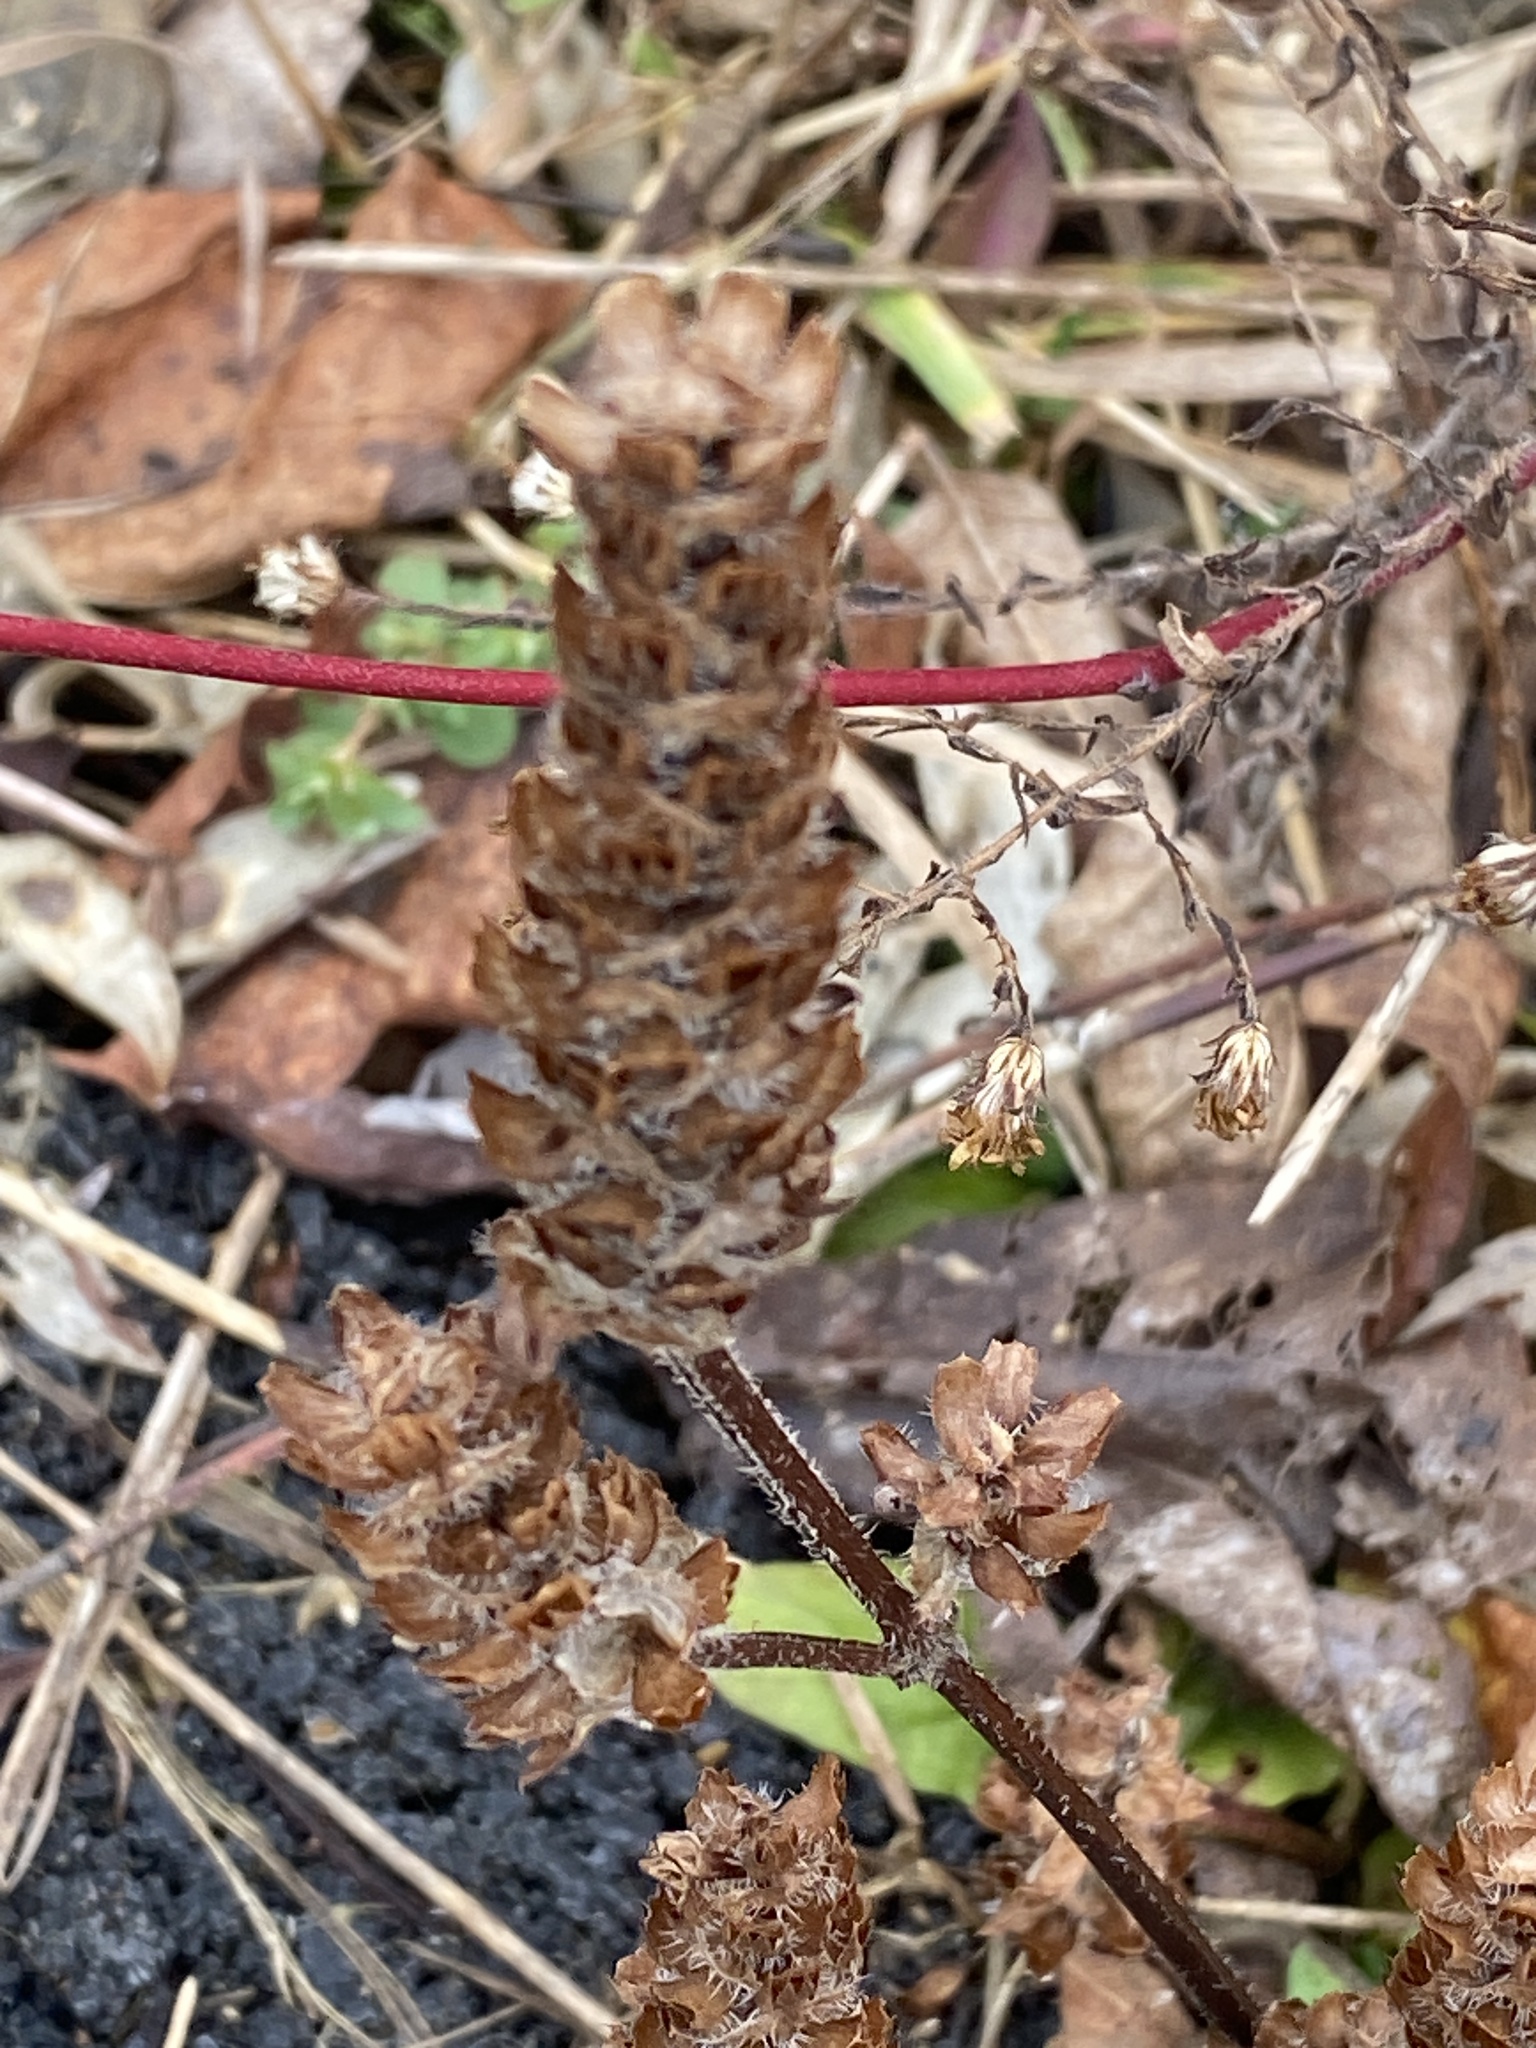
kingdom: Plantae
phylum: Tracheophyta
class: Magnoliopsida
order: Lamiales
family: Lamiaceae
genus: Prunella
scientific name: Prunella vulgaris
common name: Heal-all
